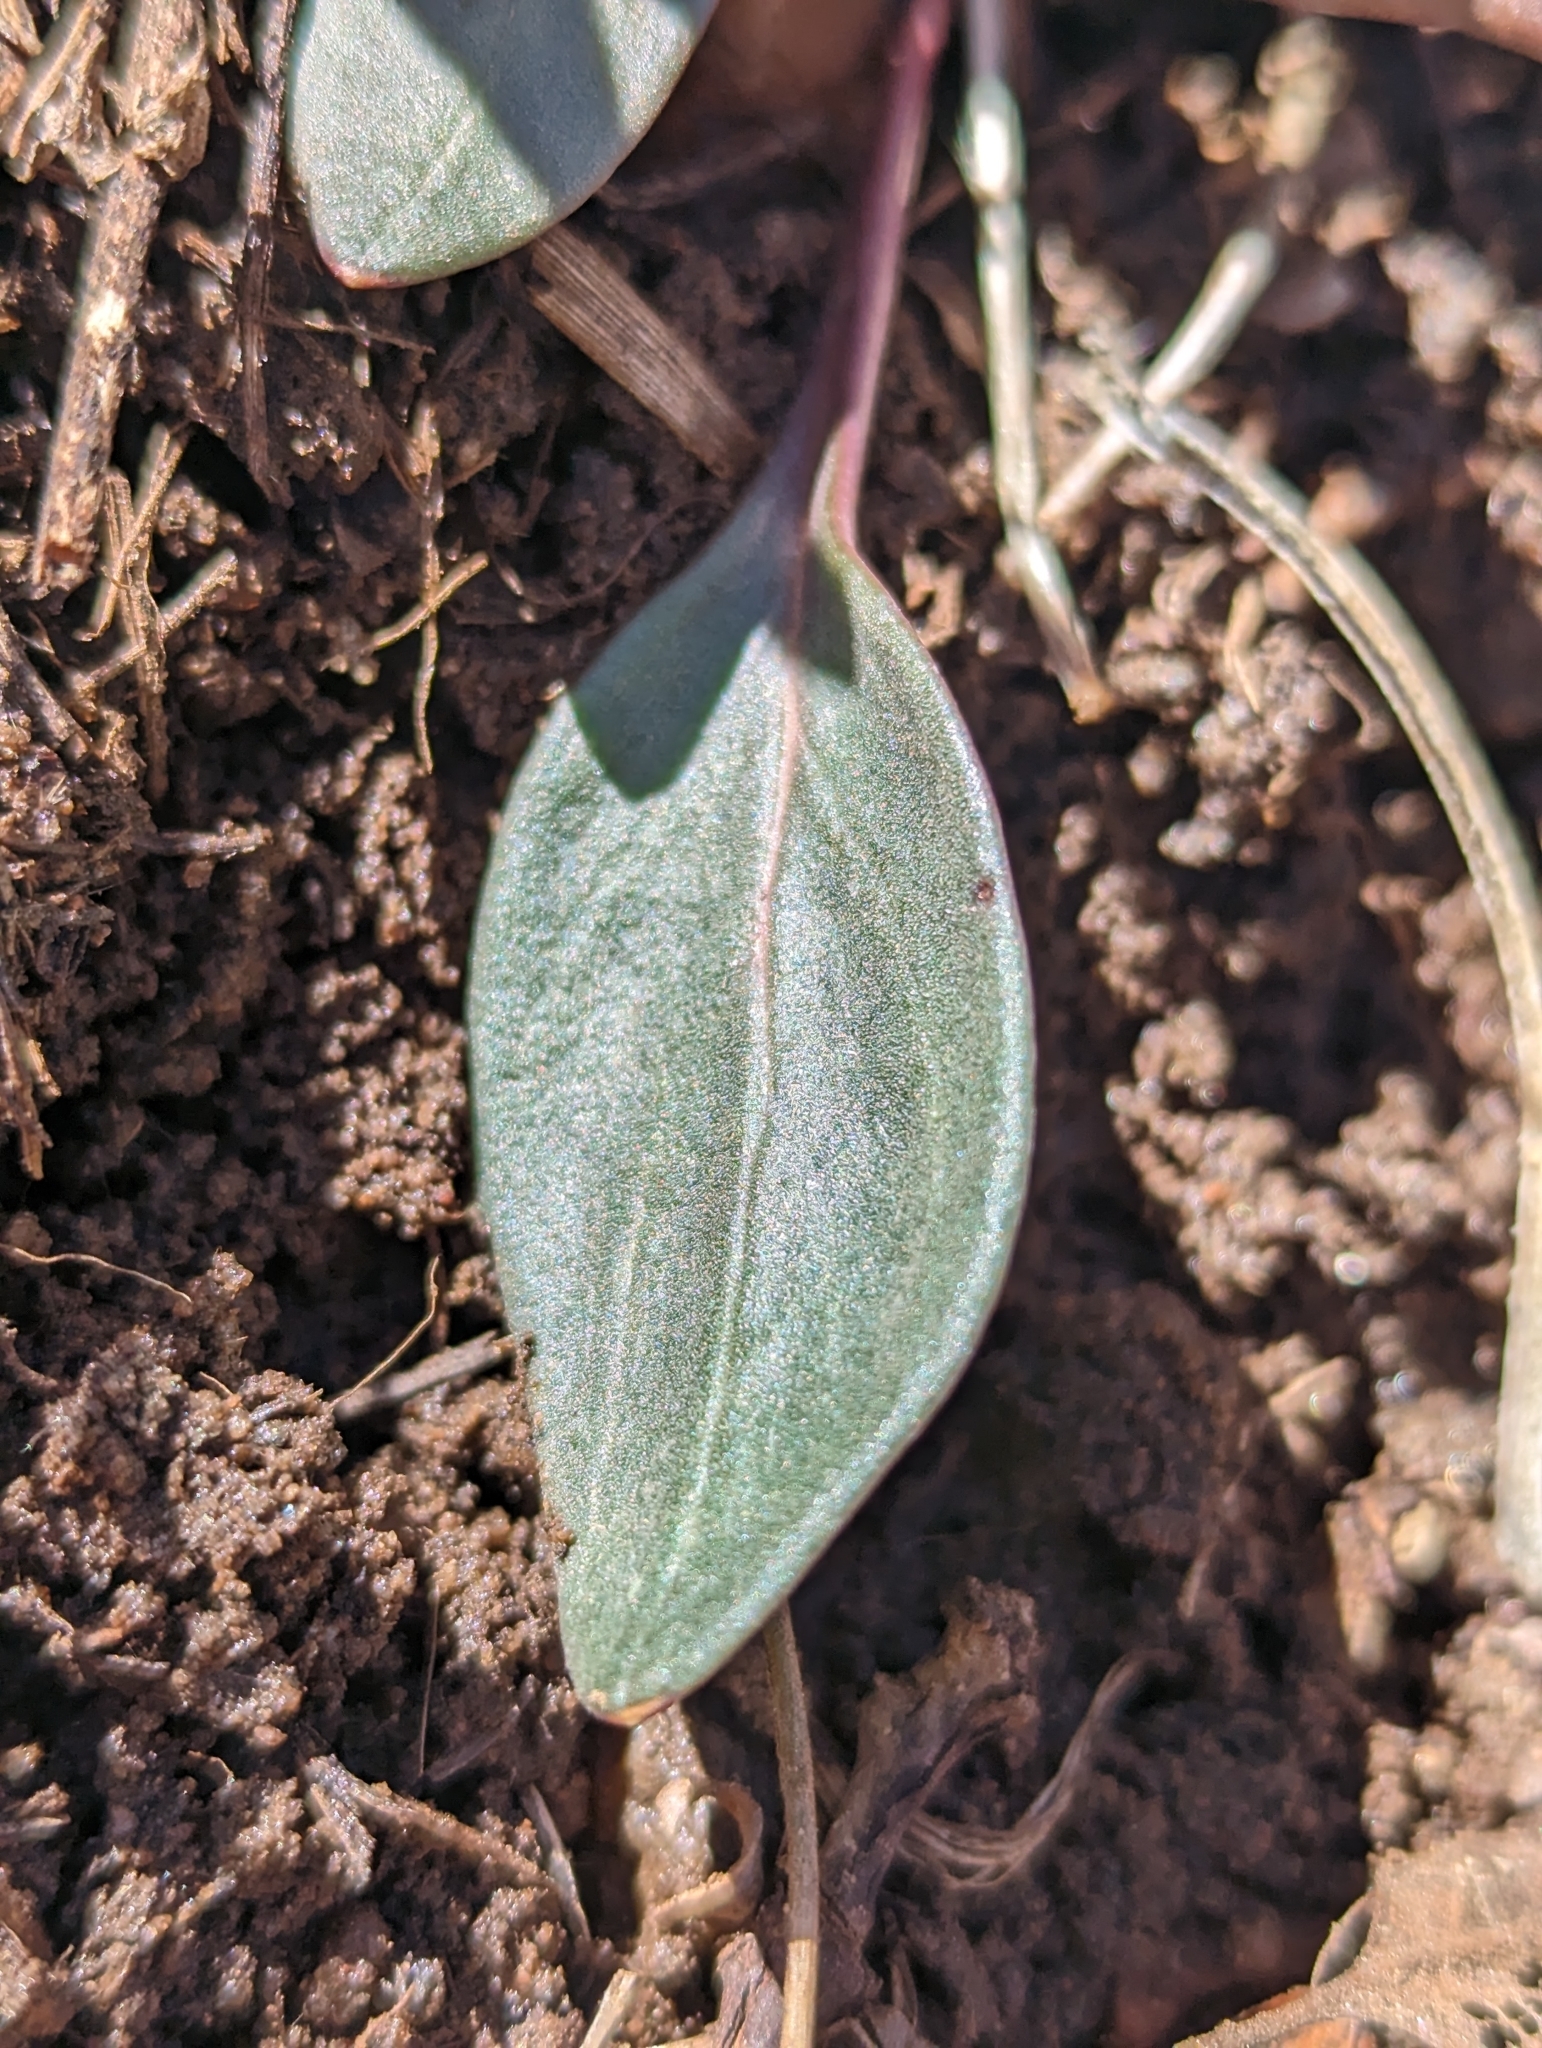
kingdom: Plantae
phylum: Tracheophyta
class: Magnoliopsida
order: Caryophyllales
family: Montiaceae
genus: Claytonia
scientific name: Claytonia rosea
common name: Rocky mountain spring-beauty
